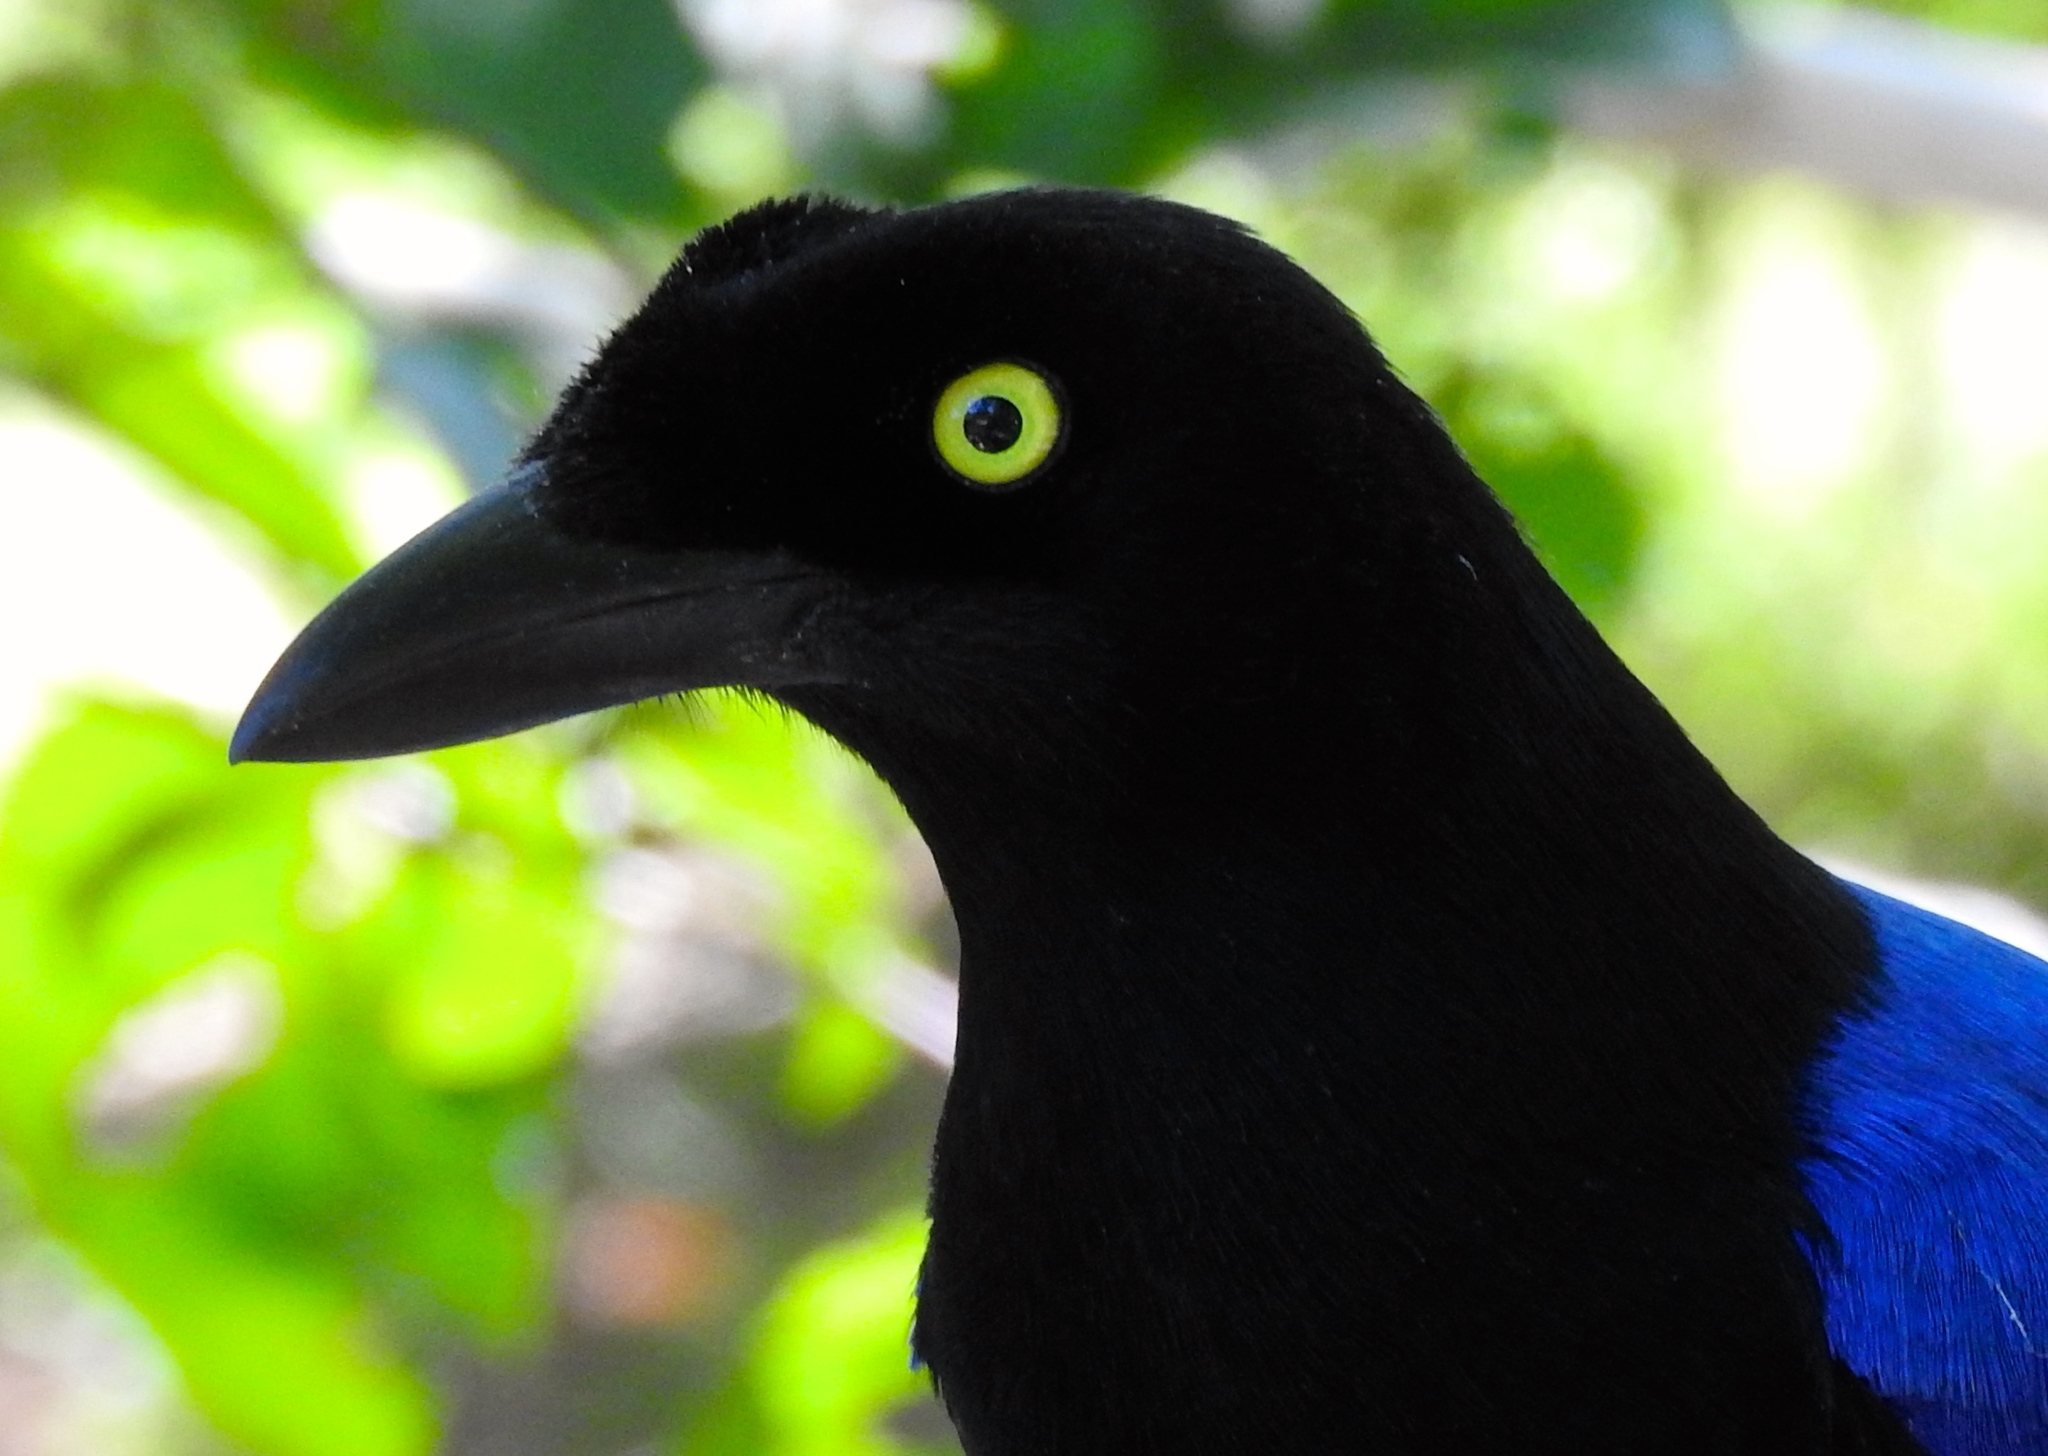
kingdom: Animalia
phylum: Chordata
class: Aves
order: Passeriformes
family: Corvidae
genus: Cyanocorax
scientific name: Cyanocorax beecheii
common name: Purplish-backed jay
